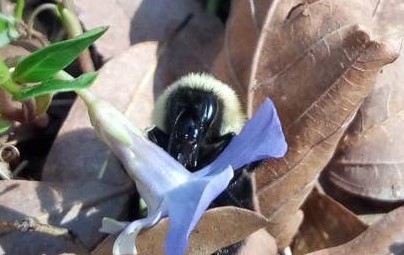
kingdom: Animalia
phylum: Arthropoda
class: Insecta
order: Hymenoptera
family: Apidae
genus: Bombus
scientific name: Bombus bimaculatus
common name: Two-spotted bumble bee
